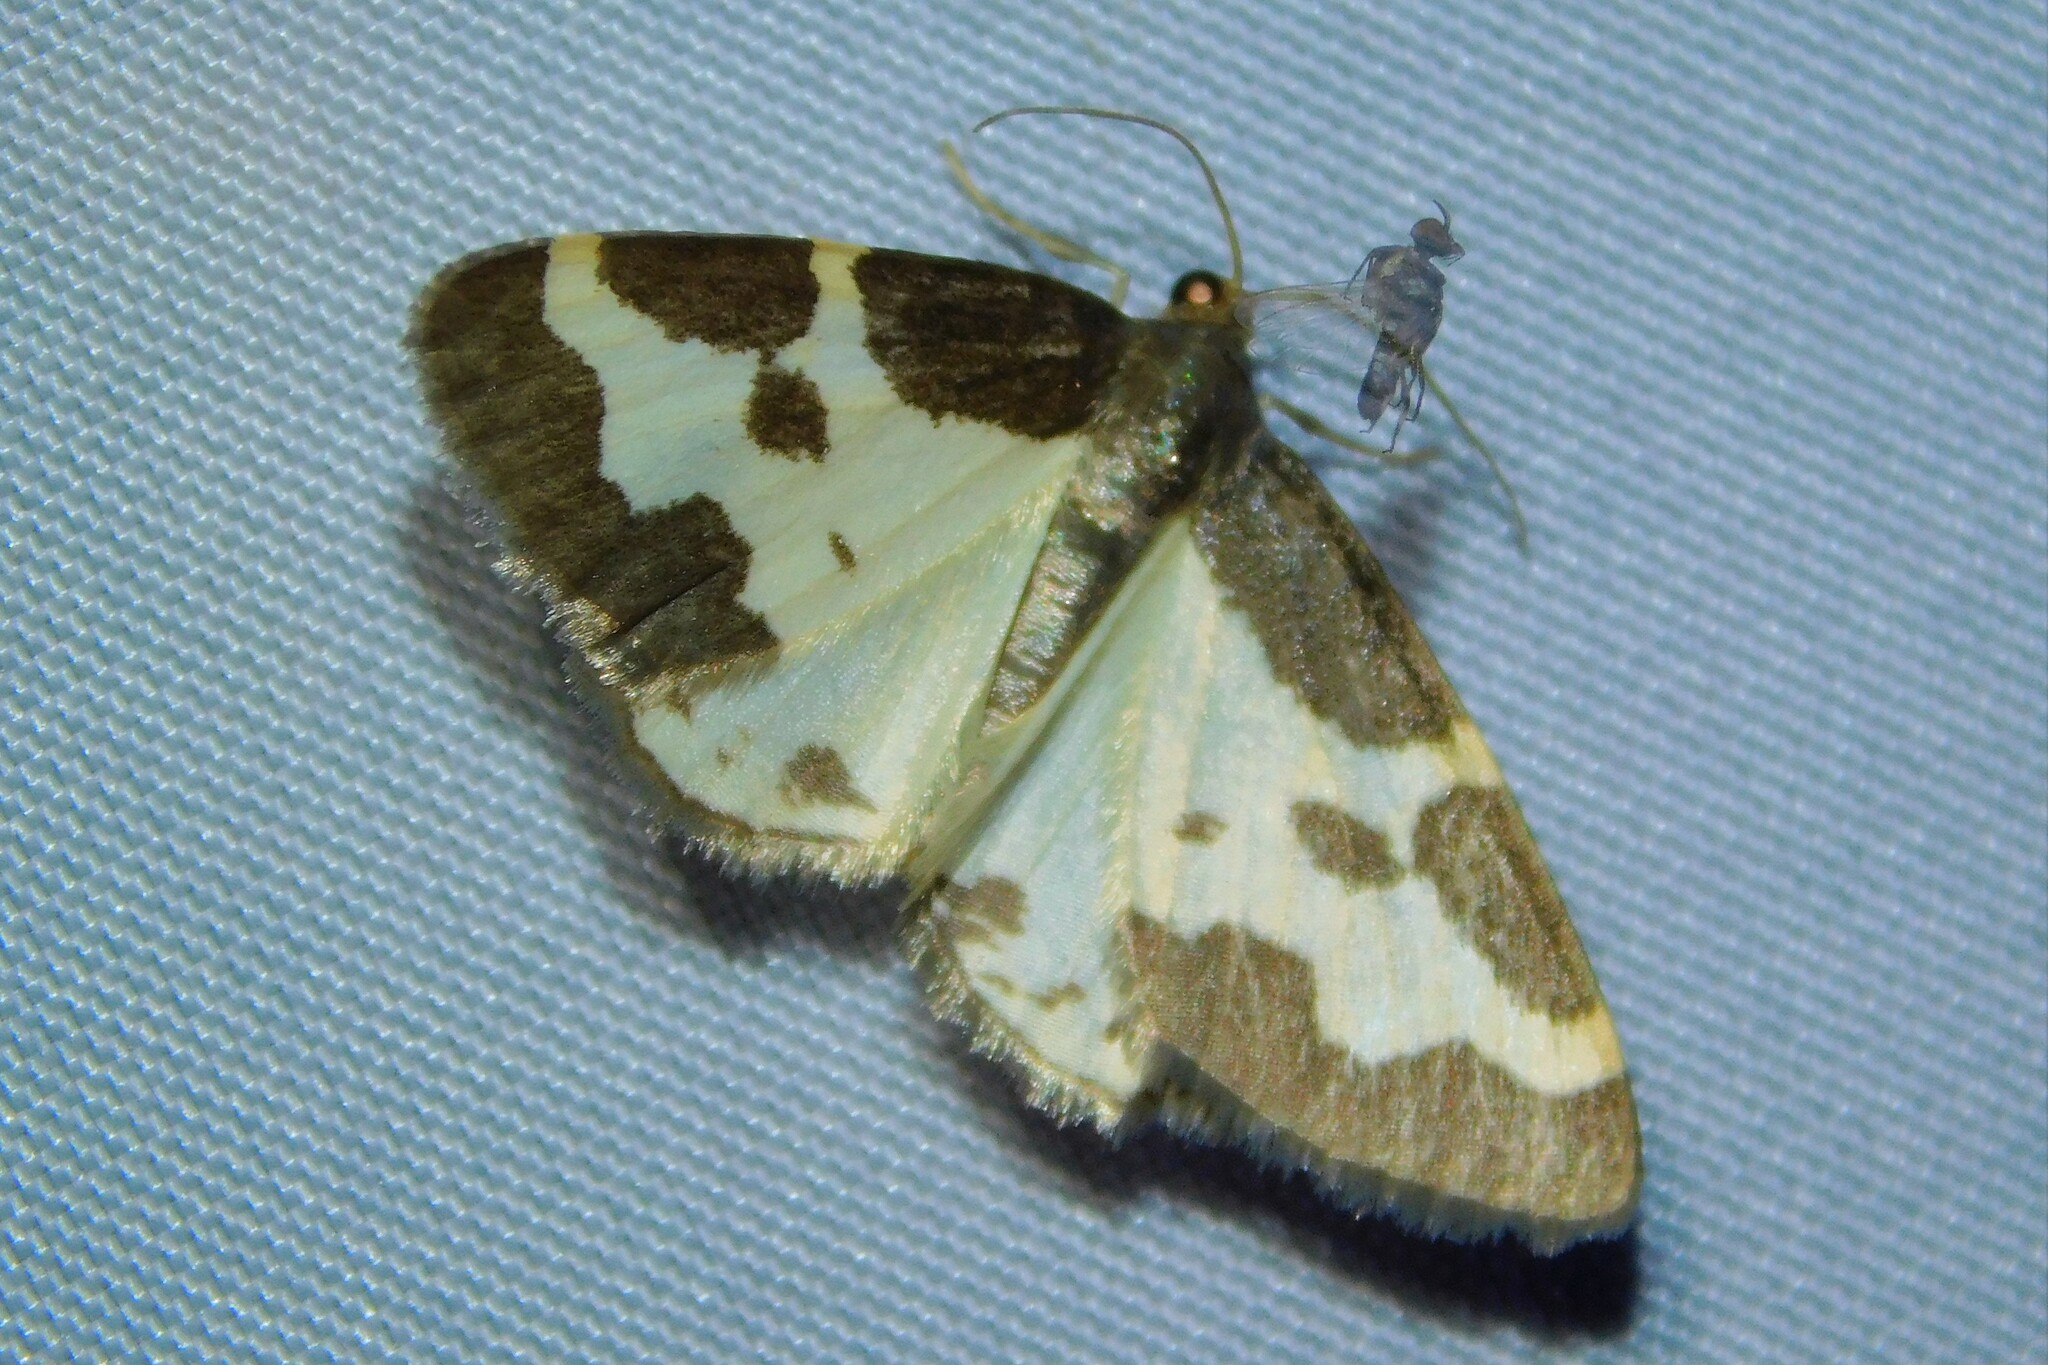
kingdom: Animalia
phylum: Arthropoda
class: Insecta
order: Lepidoptera
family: Geometridae
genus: Lomaspilis
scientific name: Lomaspilis marginata
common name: Clouded border
